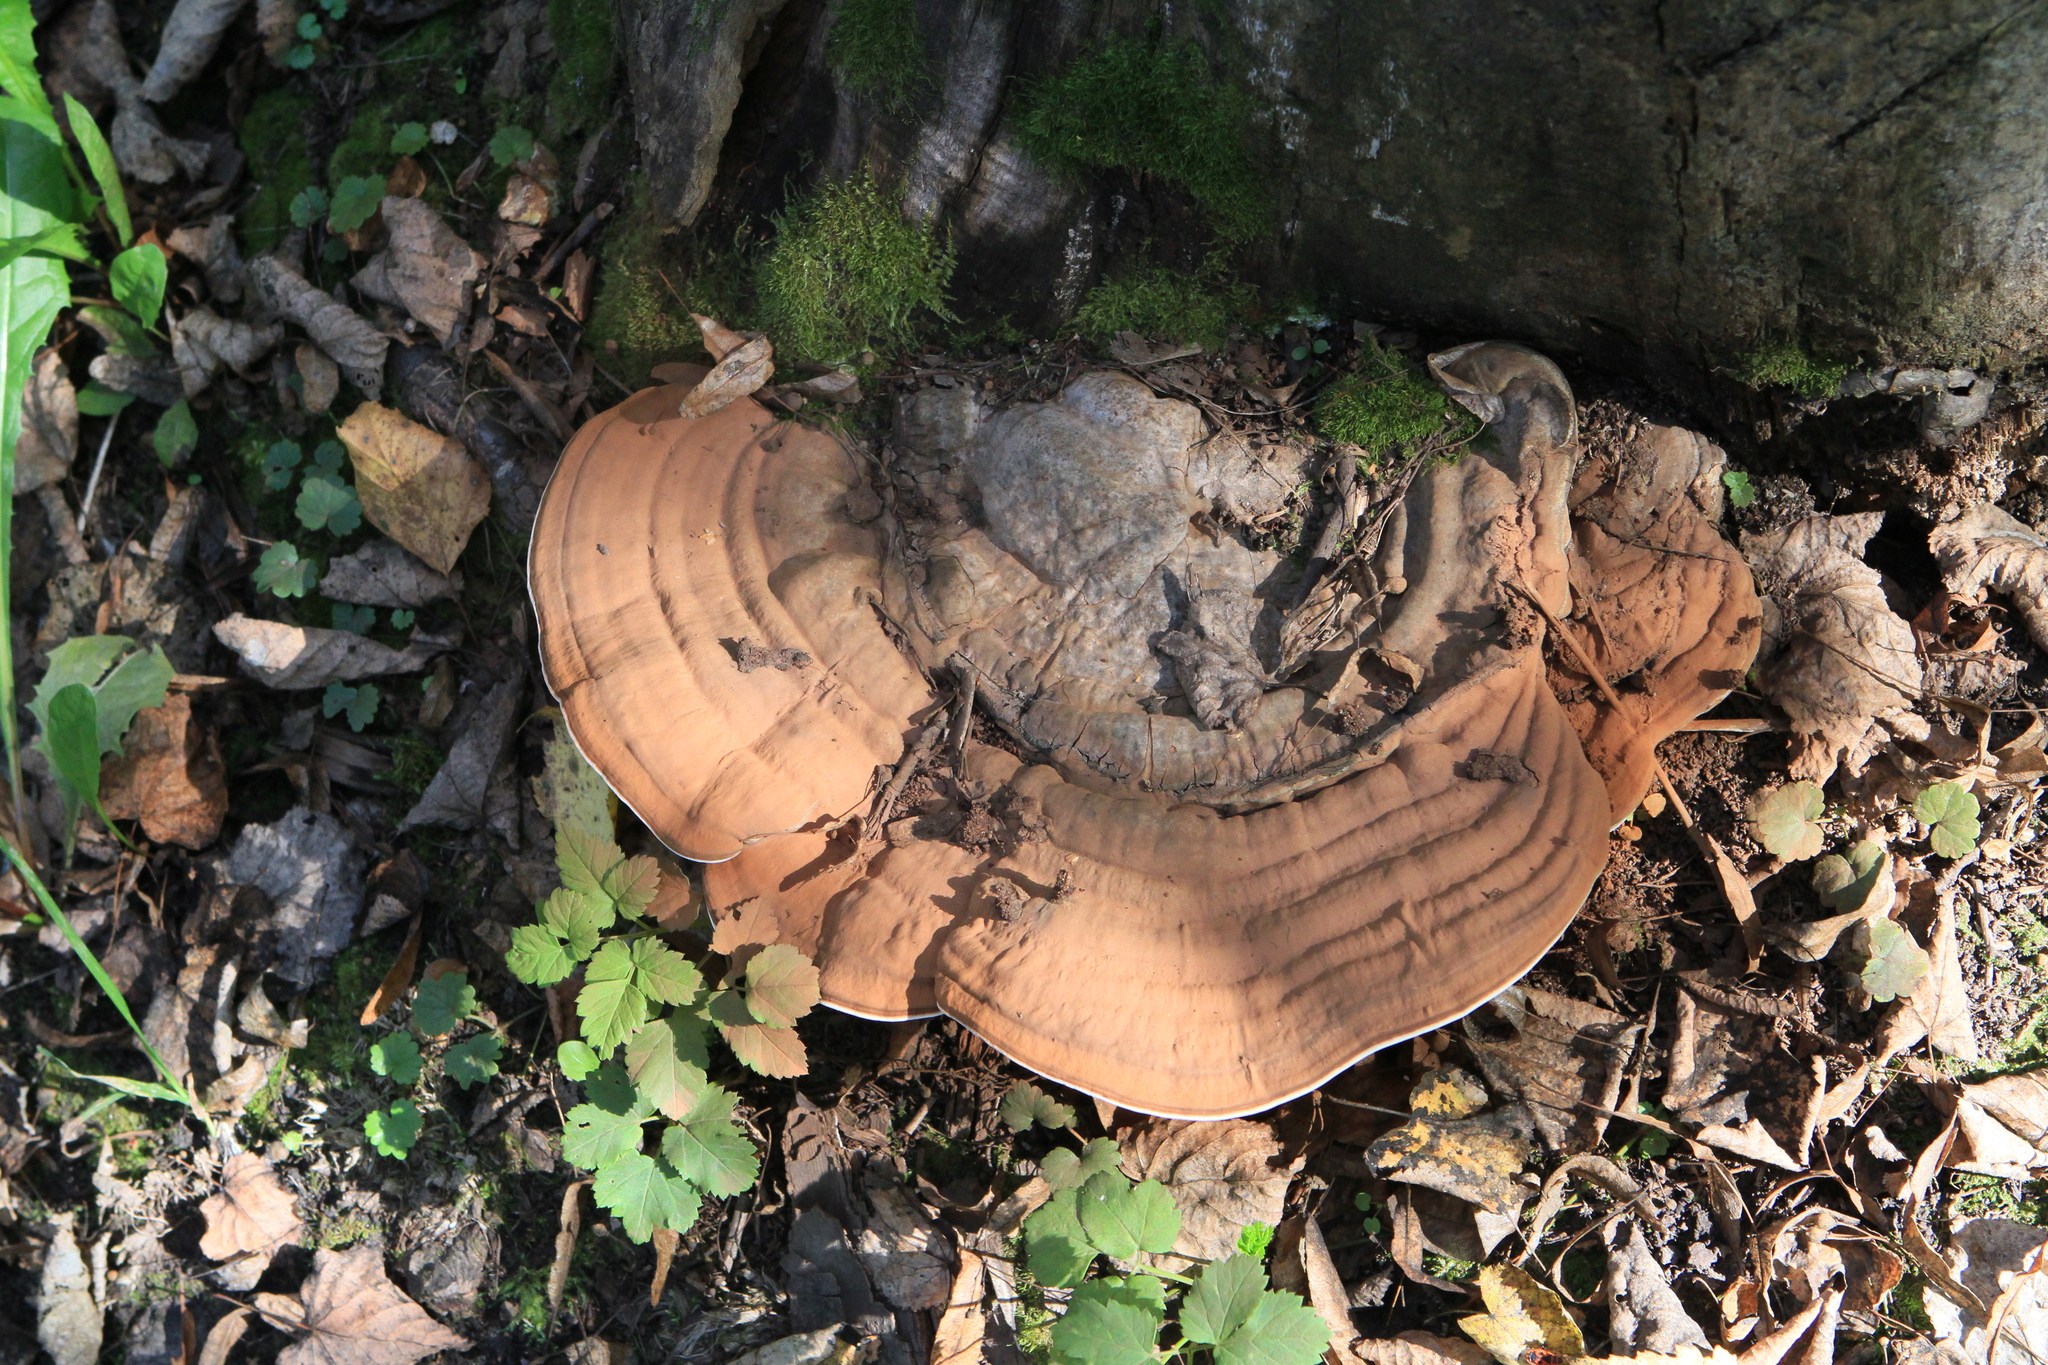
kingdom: Fungi
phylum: Basidiomycota
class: Agaricomycetes
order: Polyporales
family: Polyporaceae
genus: Ganoderma
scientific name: Ganoderma applanatum
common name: Artist's bracket
